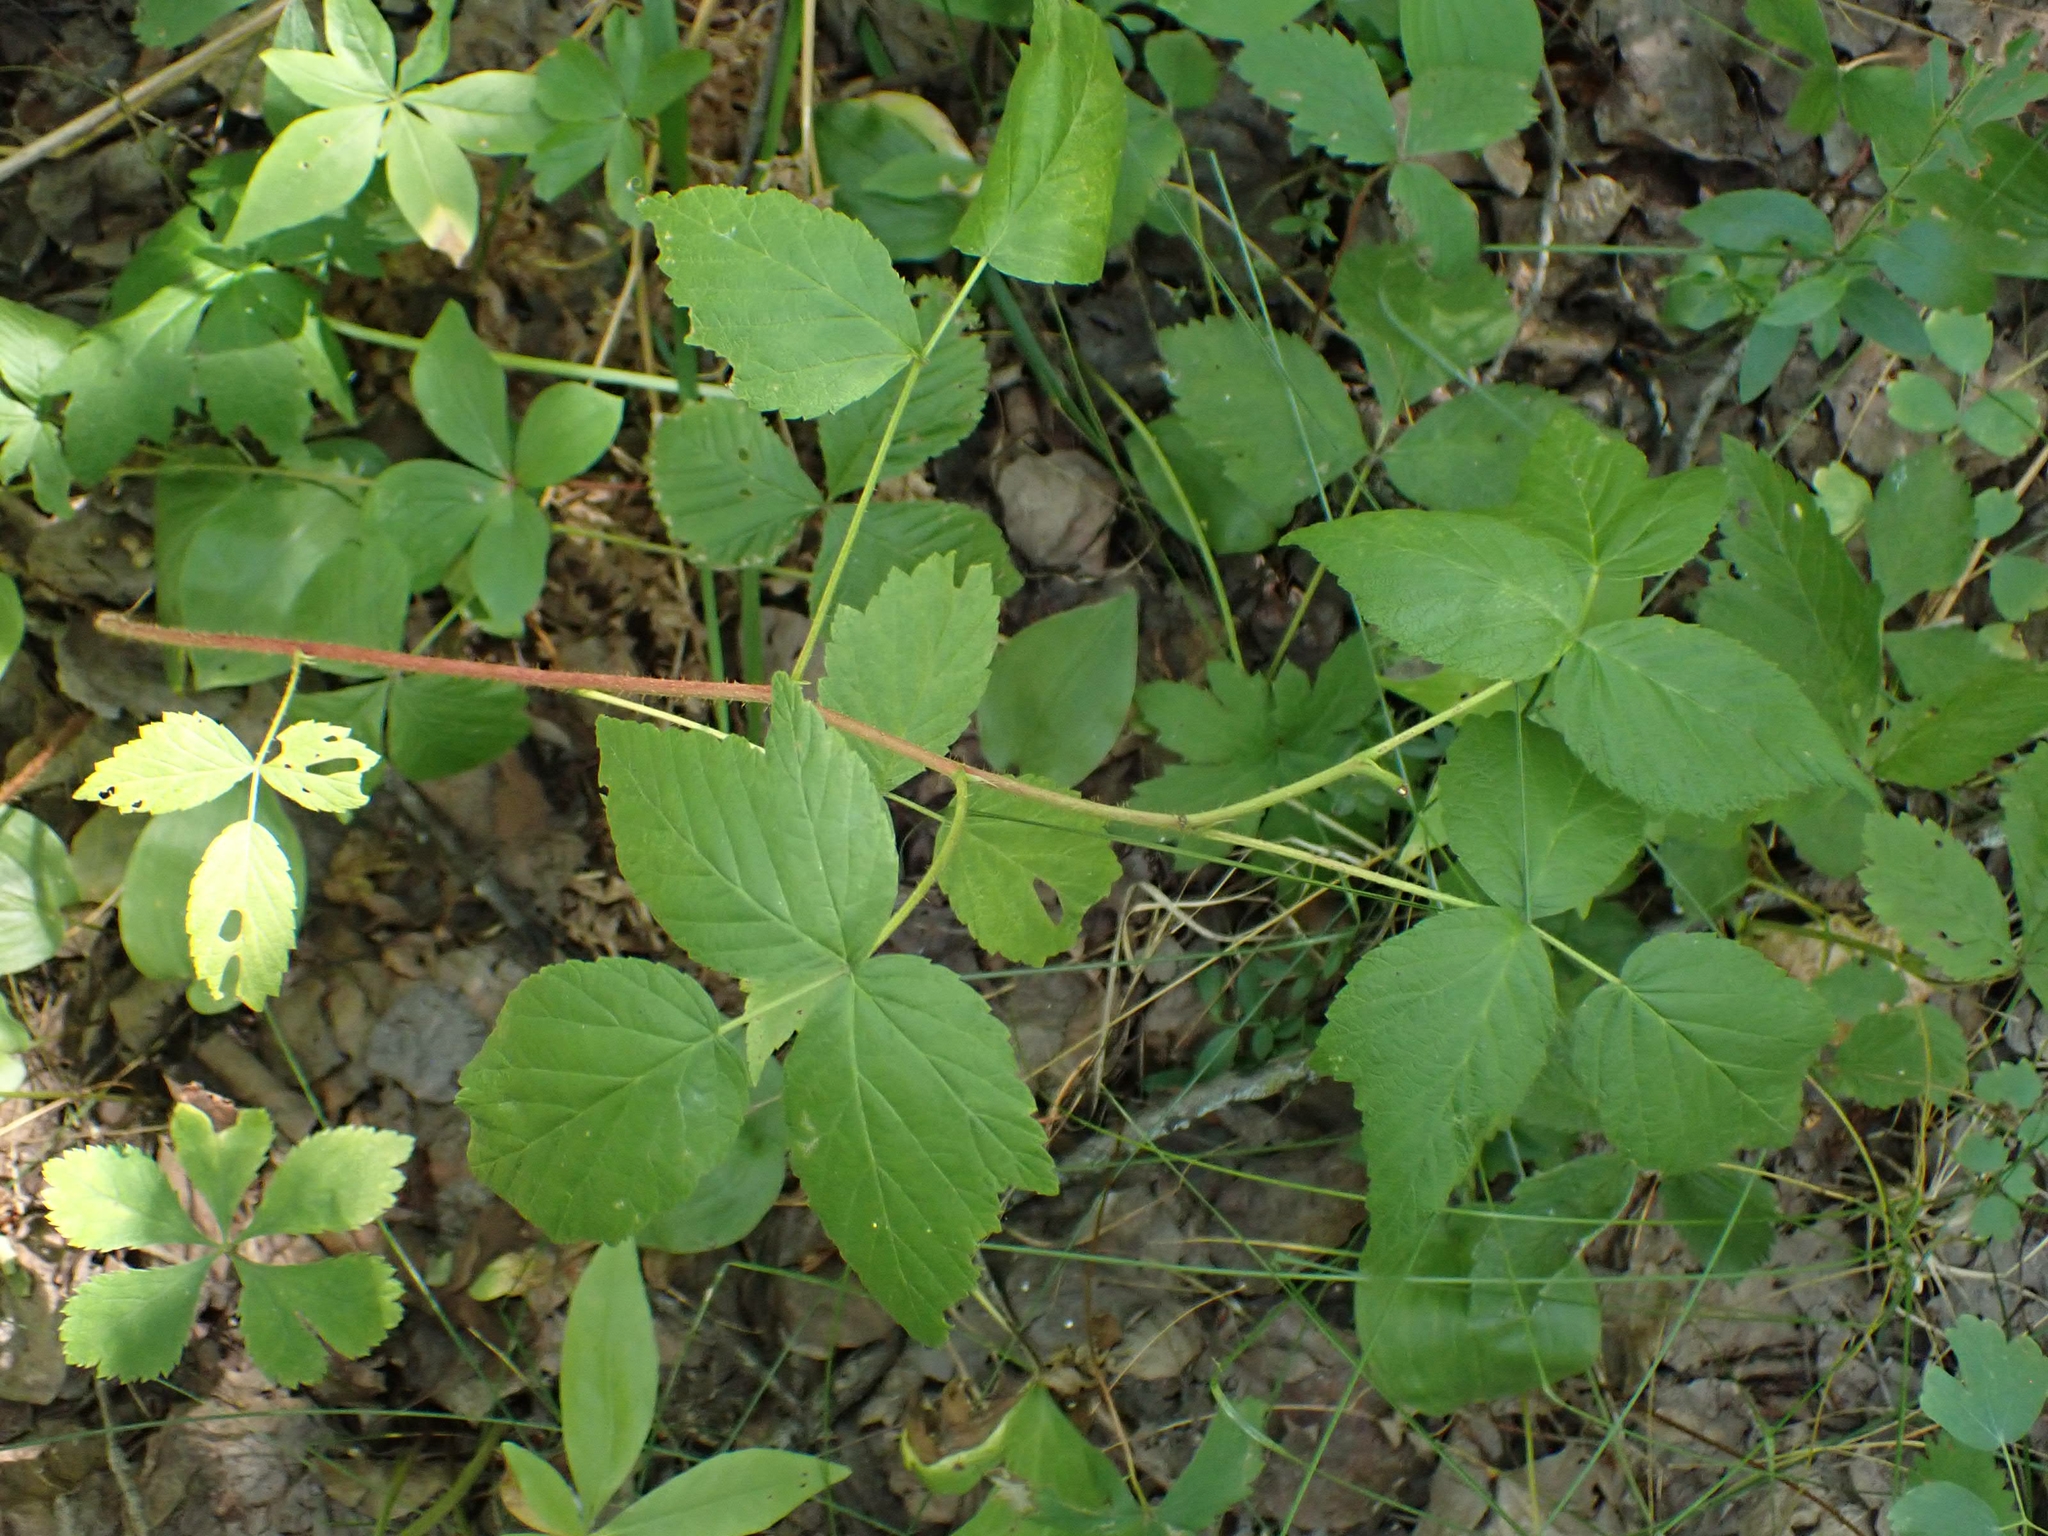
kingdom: Plantae
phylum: Tracheophyta
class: Magnoliopsida
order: Rosales
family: Rosaceae
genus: Rubus
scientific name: Rubus idaeus
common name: Raspberry
